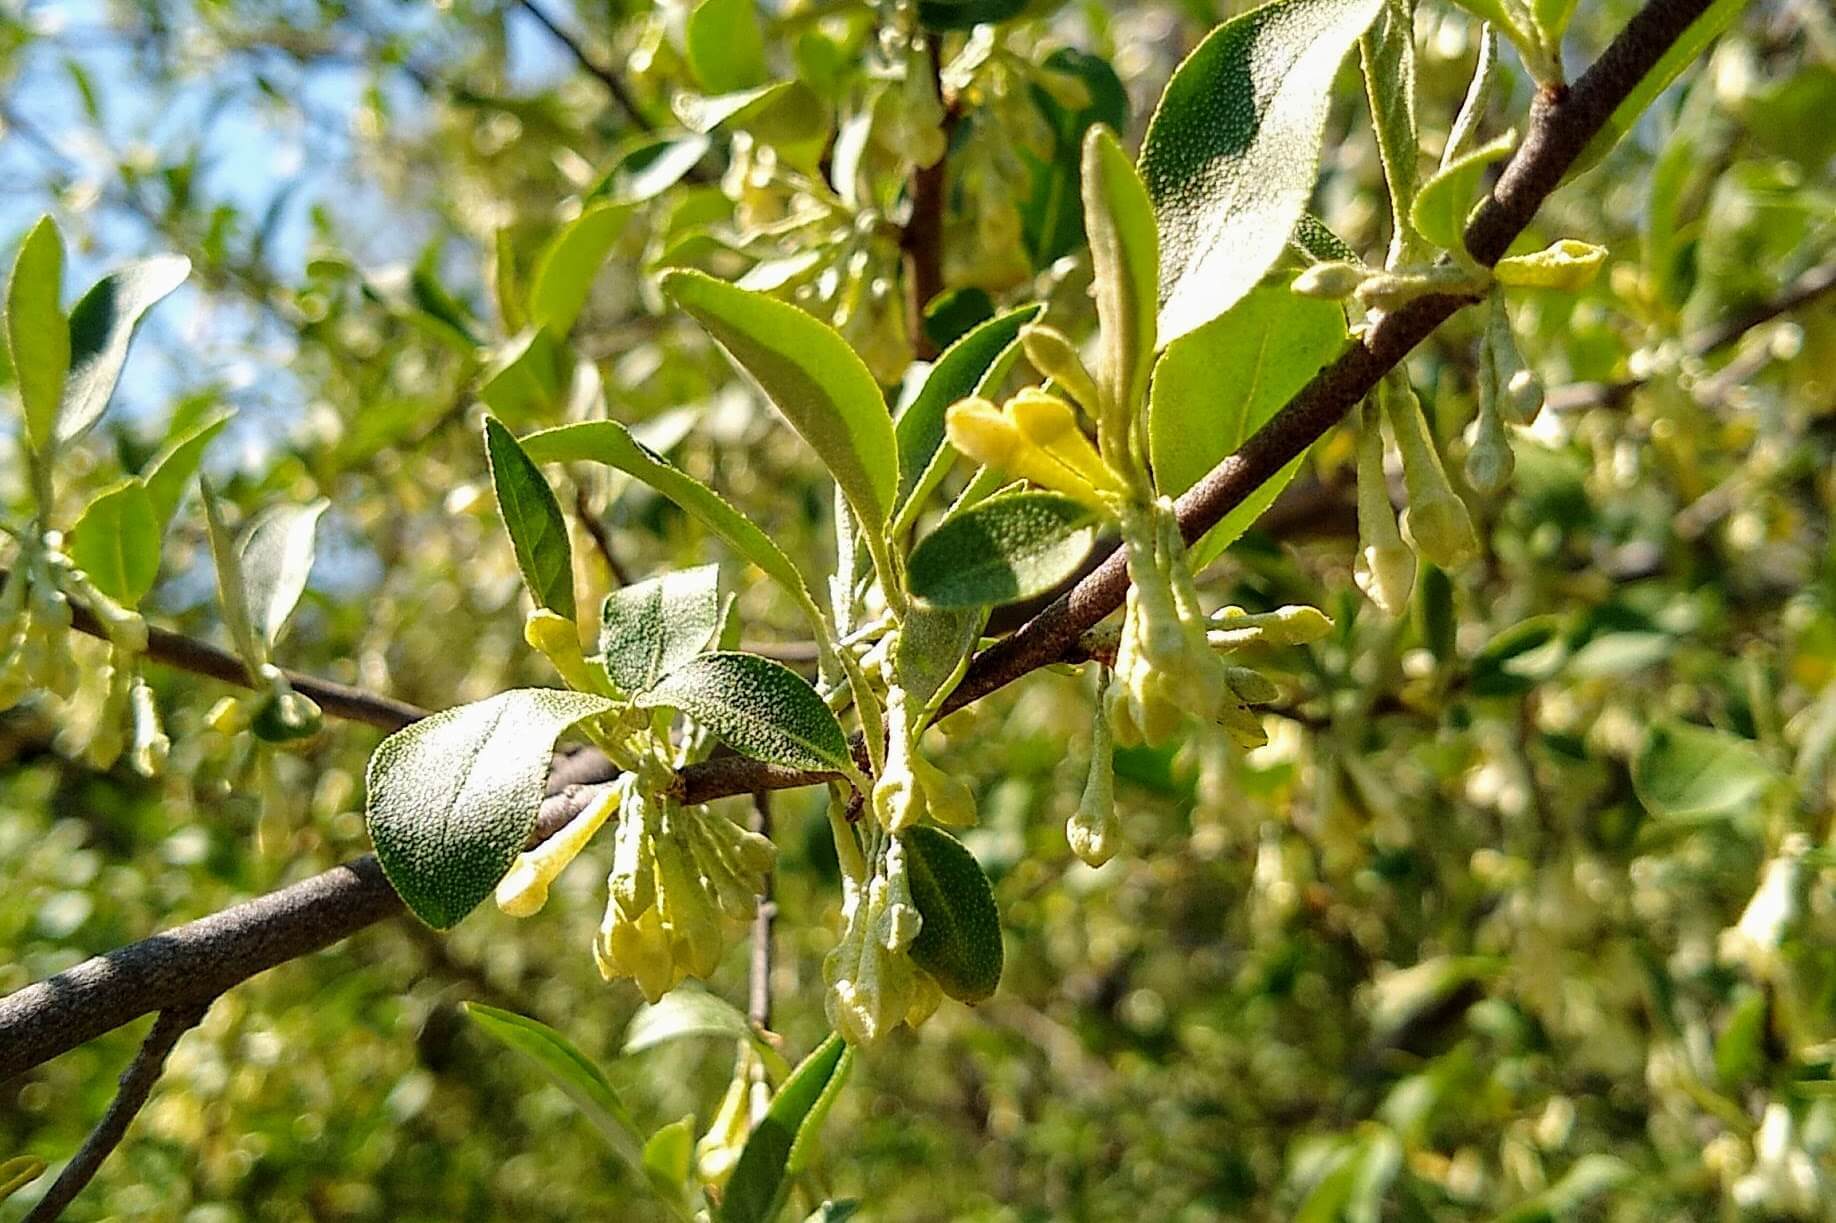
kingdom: Plantae
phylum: Tracheophyta
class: Magnoliopsida
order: Rosales
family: Elaeagnaceae
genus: Elaeagnus
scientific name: Elaeagnus umbellata
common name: Autumn olive
